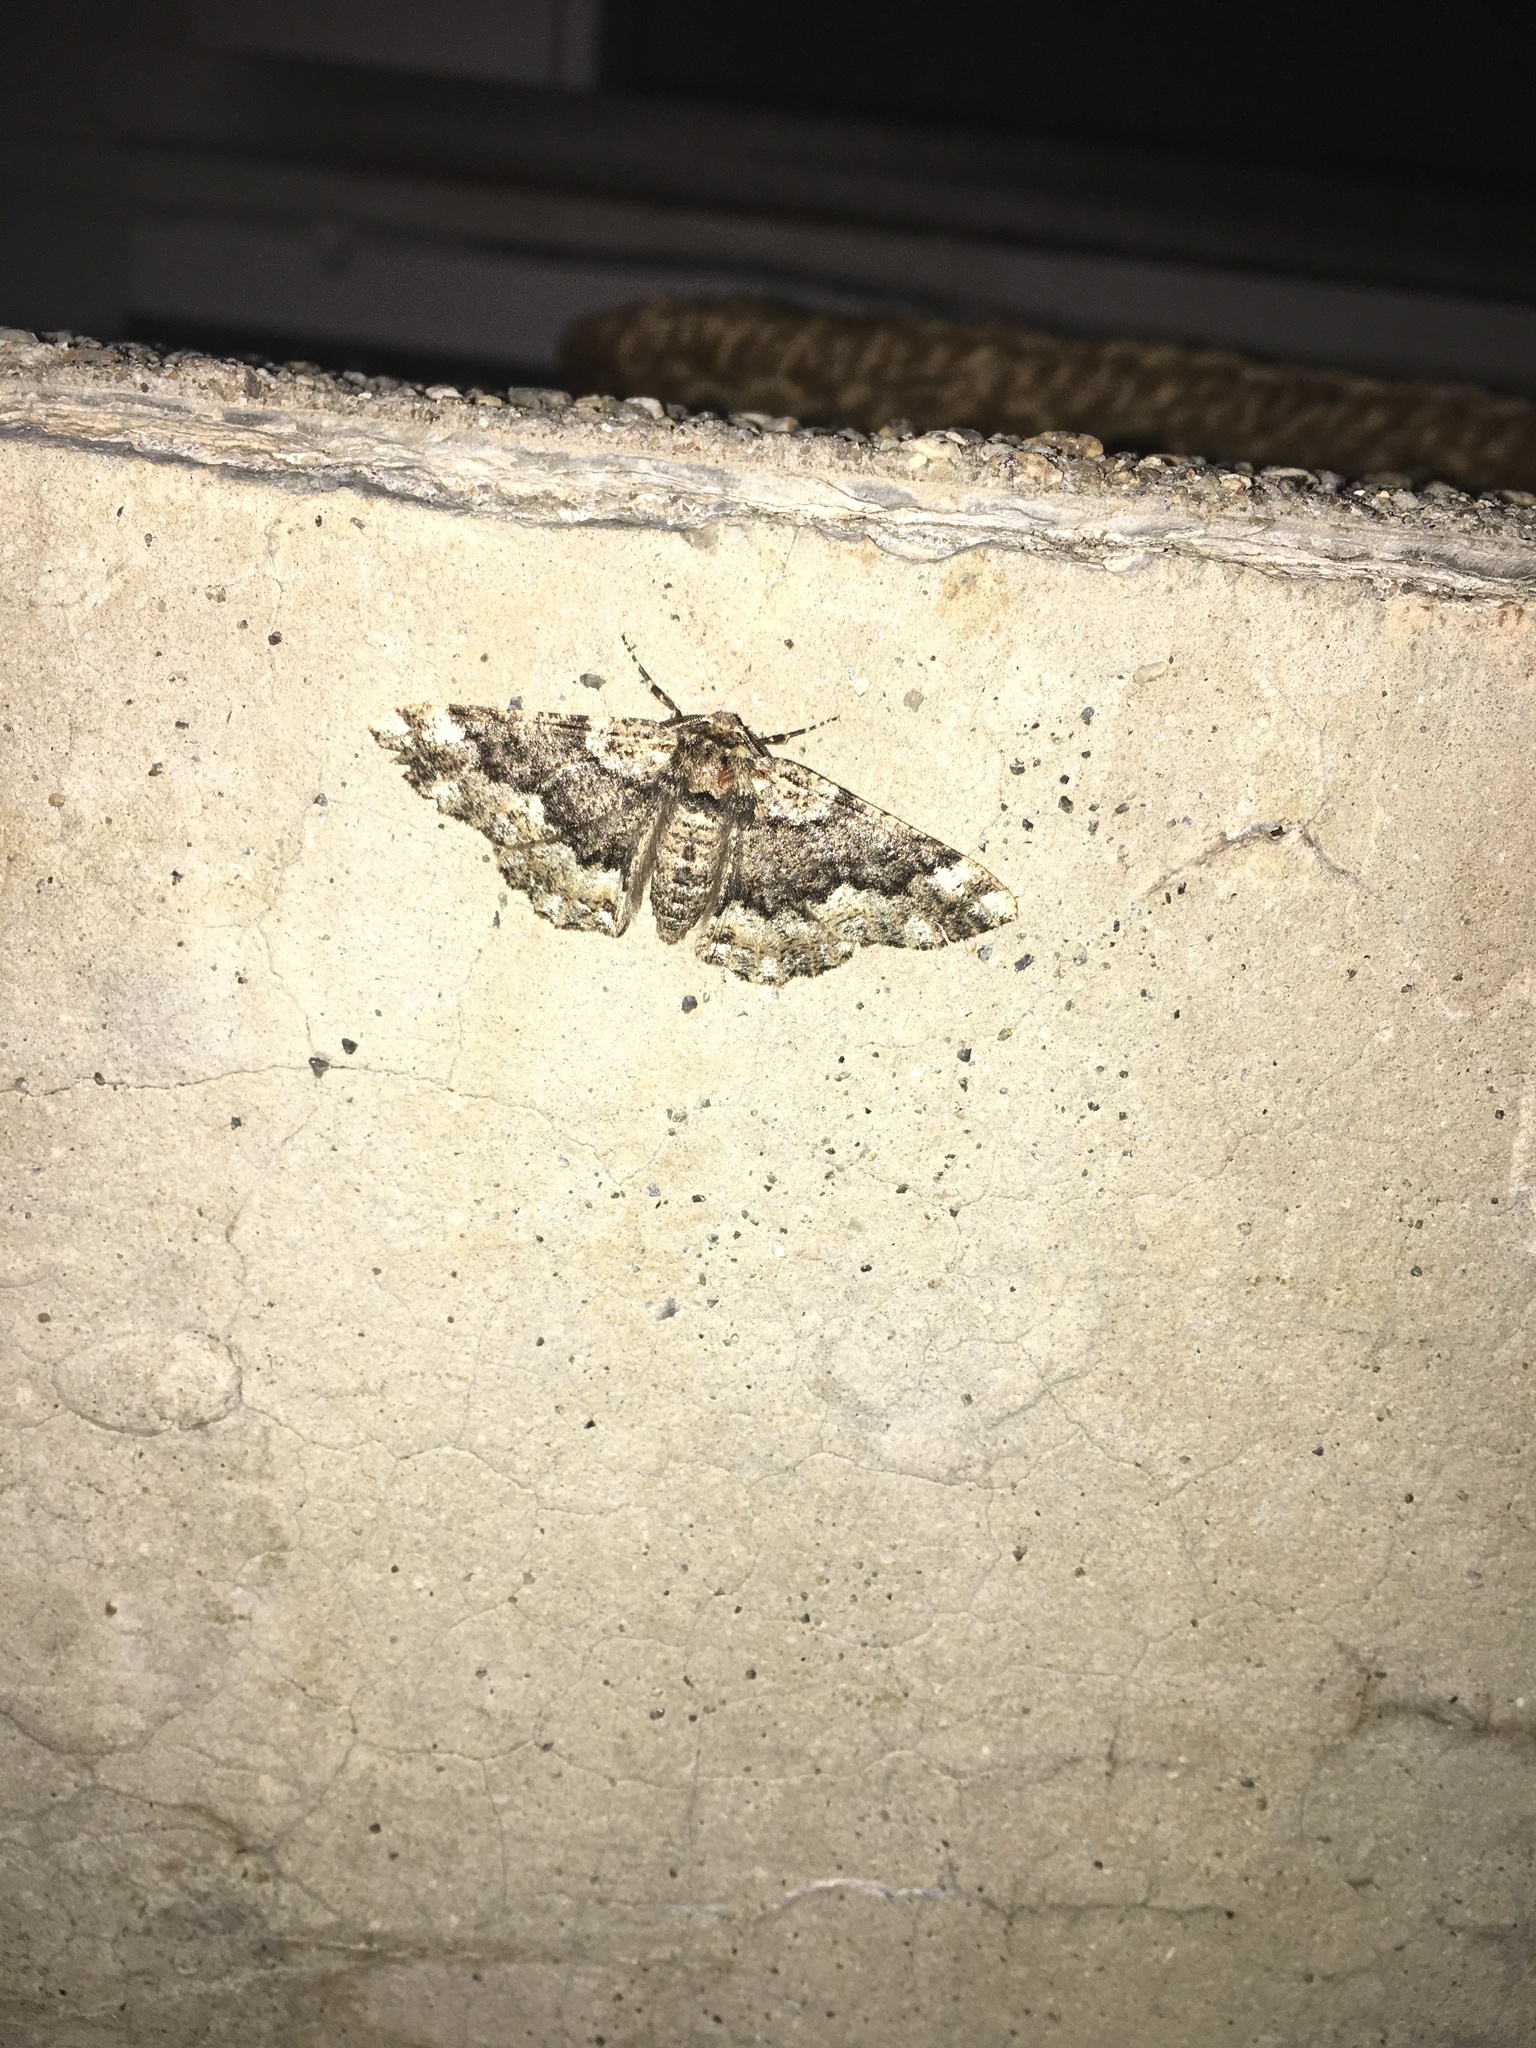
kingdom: Animalia
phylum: Arthropoda
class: Insecta
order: Lepidoptera
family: Geometridae
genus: Phaeoura
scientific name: Phaeoura quernaria
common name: Oak beauty
